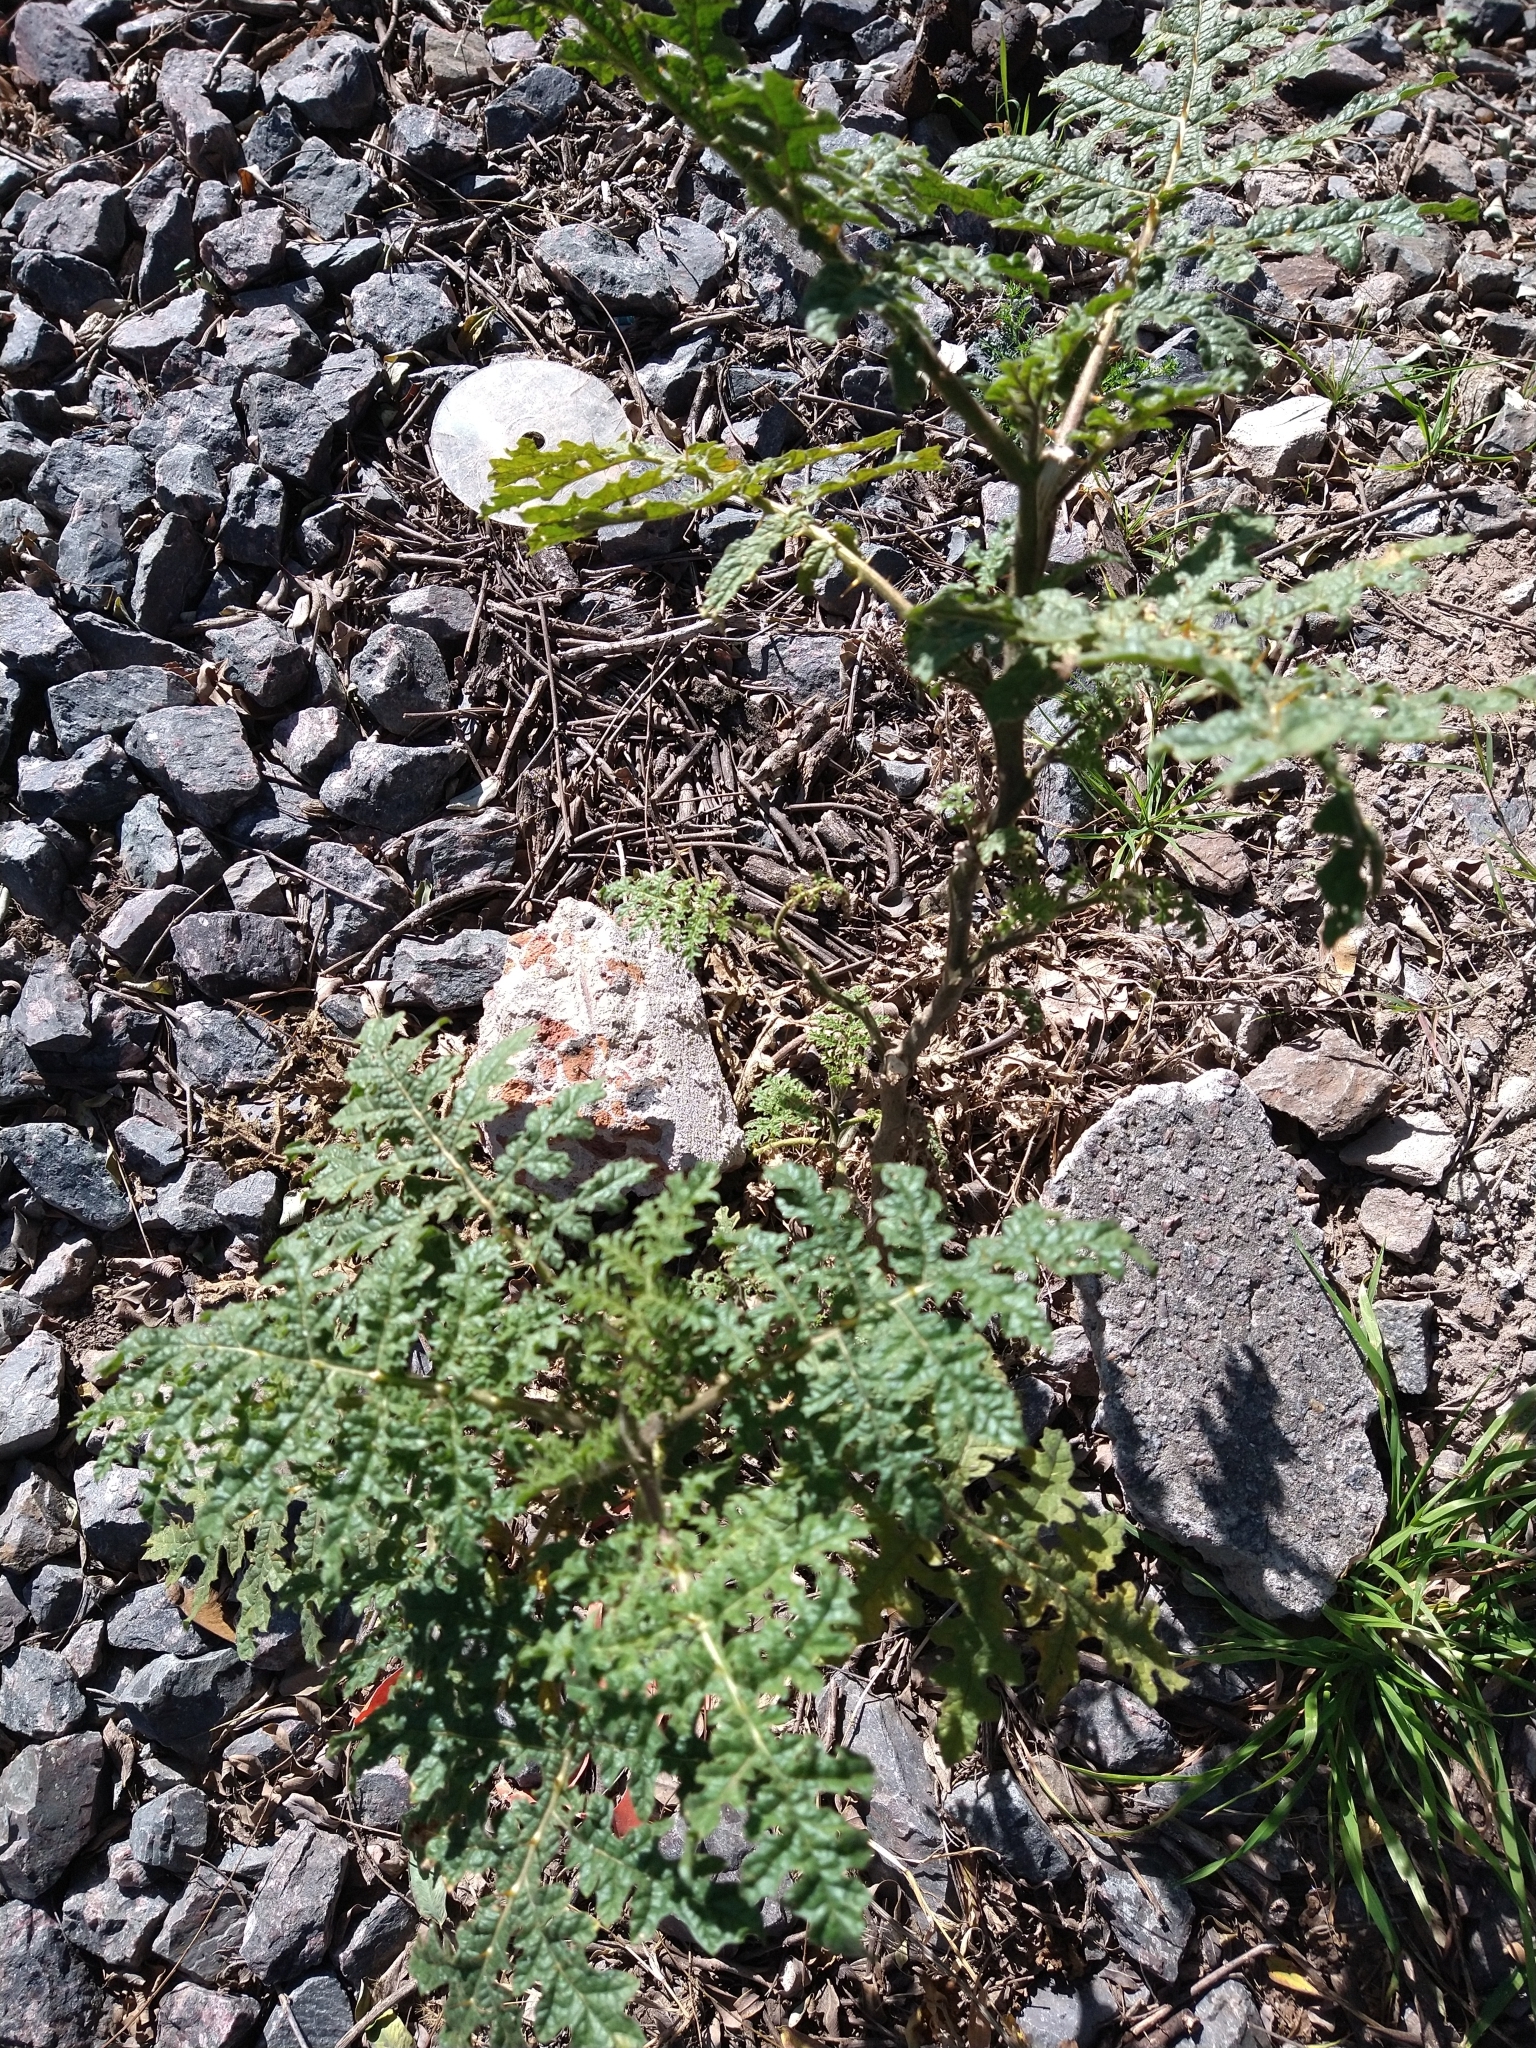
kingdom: Plantae
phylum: Tracheophyta
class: Magnoliopsida
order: Solanales
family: Solanaceae
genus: Solanum
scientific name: Solanum sisymbriifolium
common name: Red buffalo-bur
